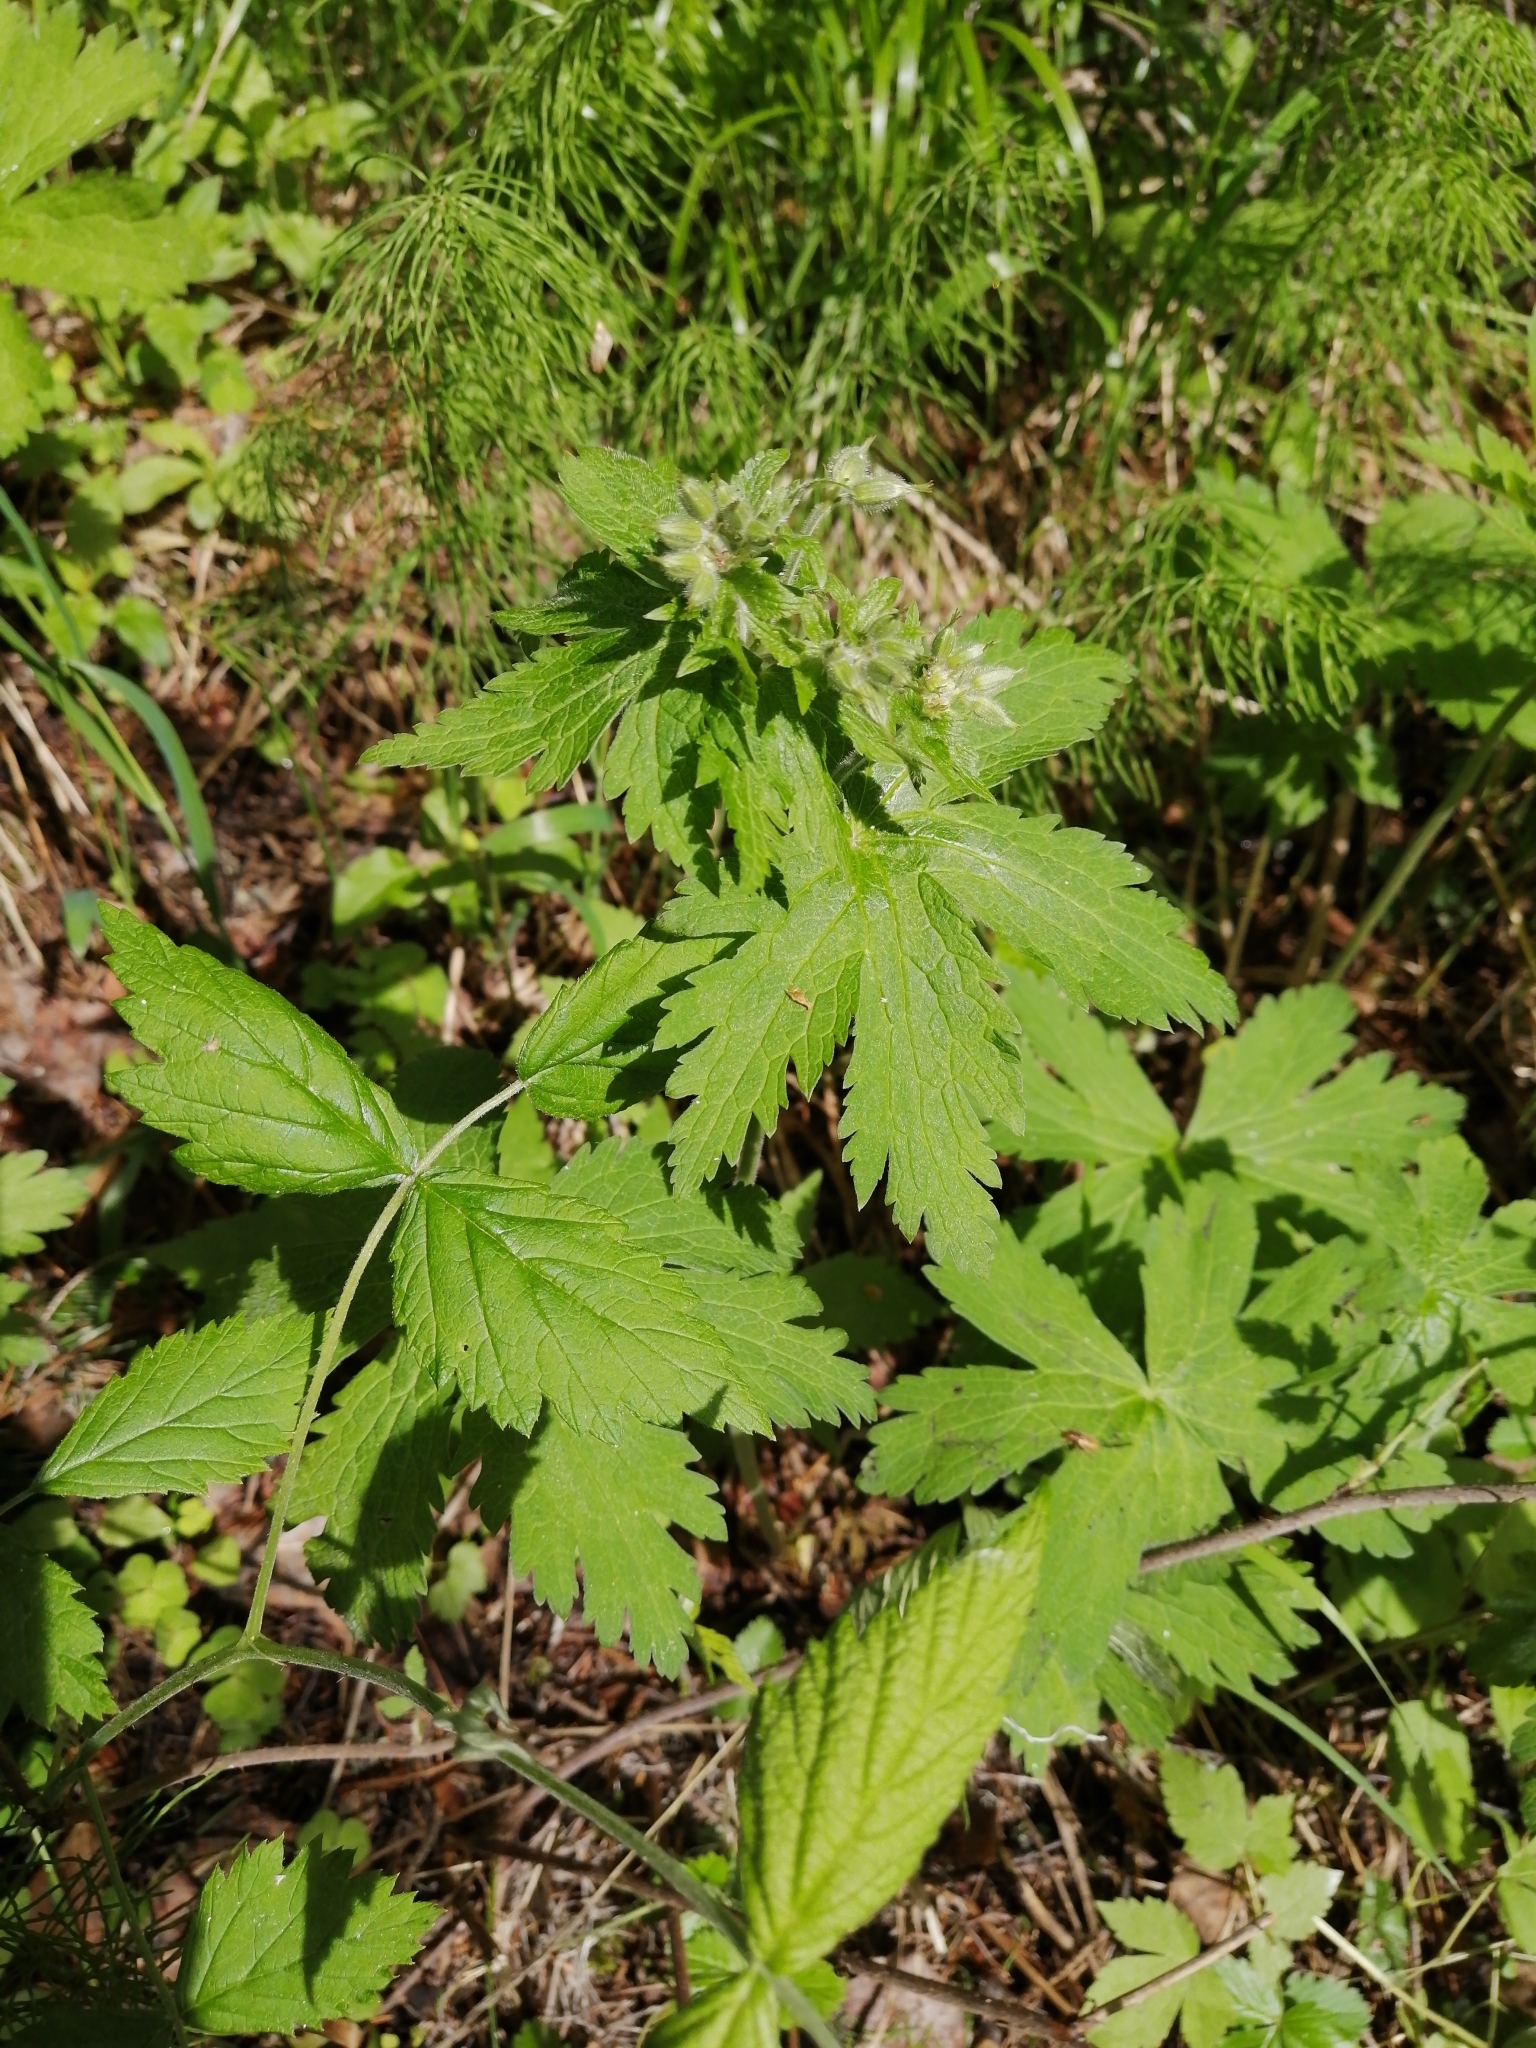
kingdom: Plantae
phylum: Tracheophyta
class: Magnoliopsida
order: Geraniales
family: Geraniaceae
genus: Geranium
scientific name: Geranium sylvaticum
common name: Wood crane's-bill
